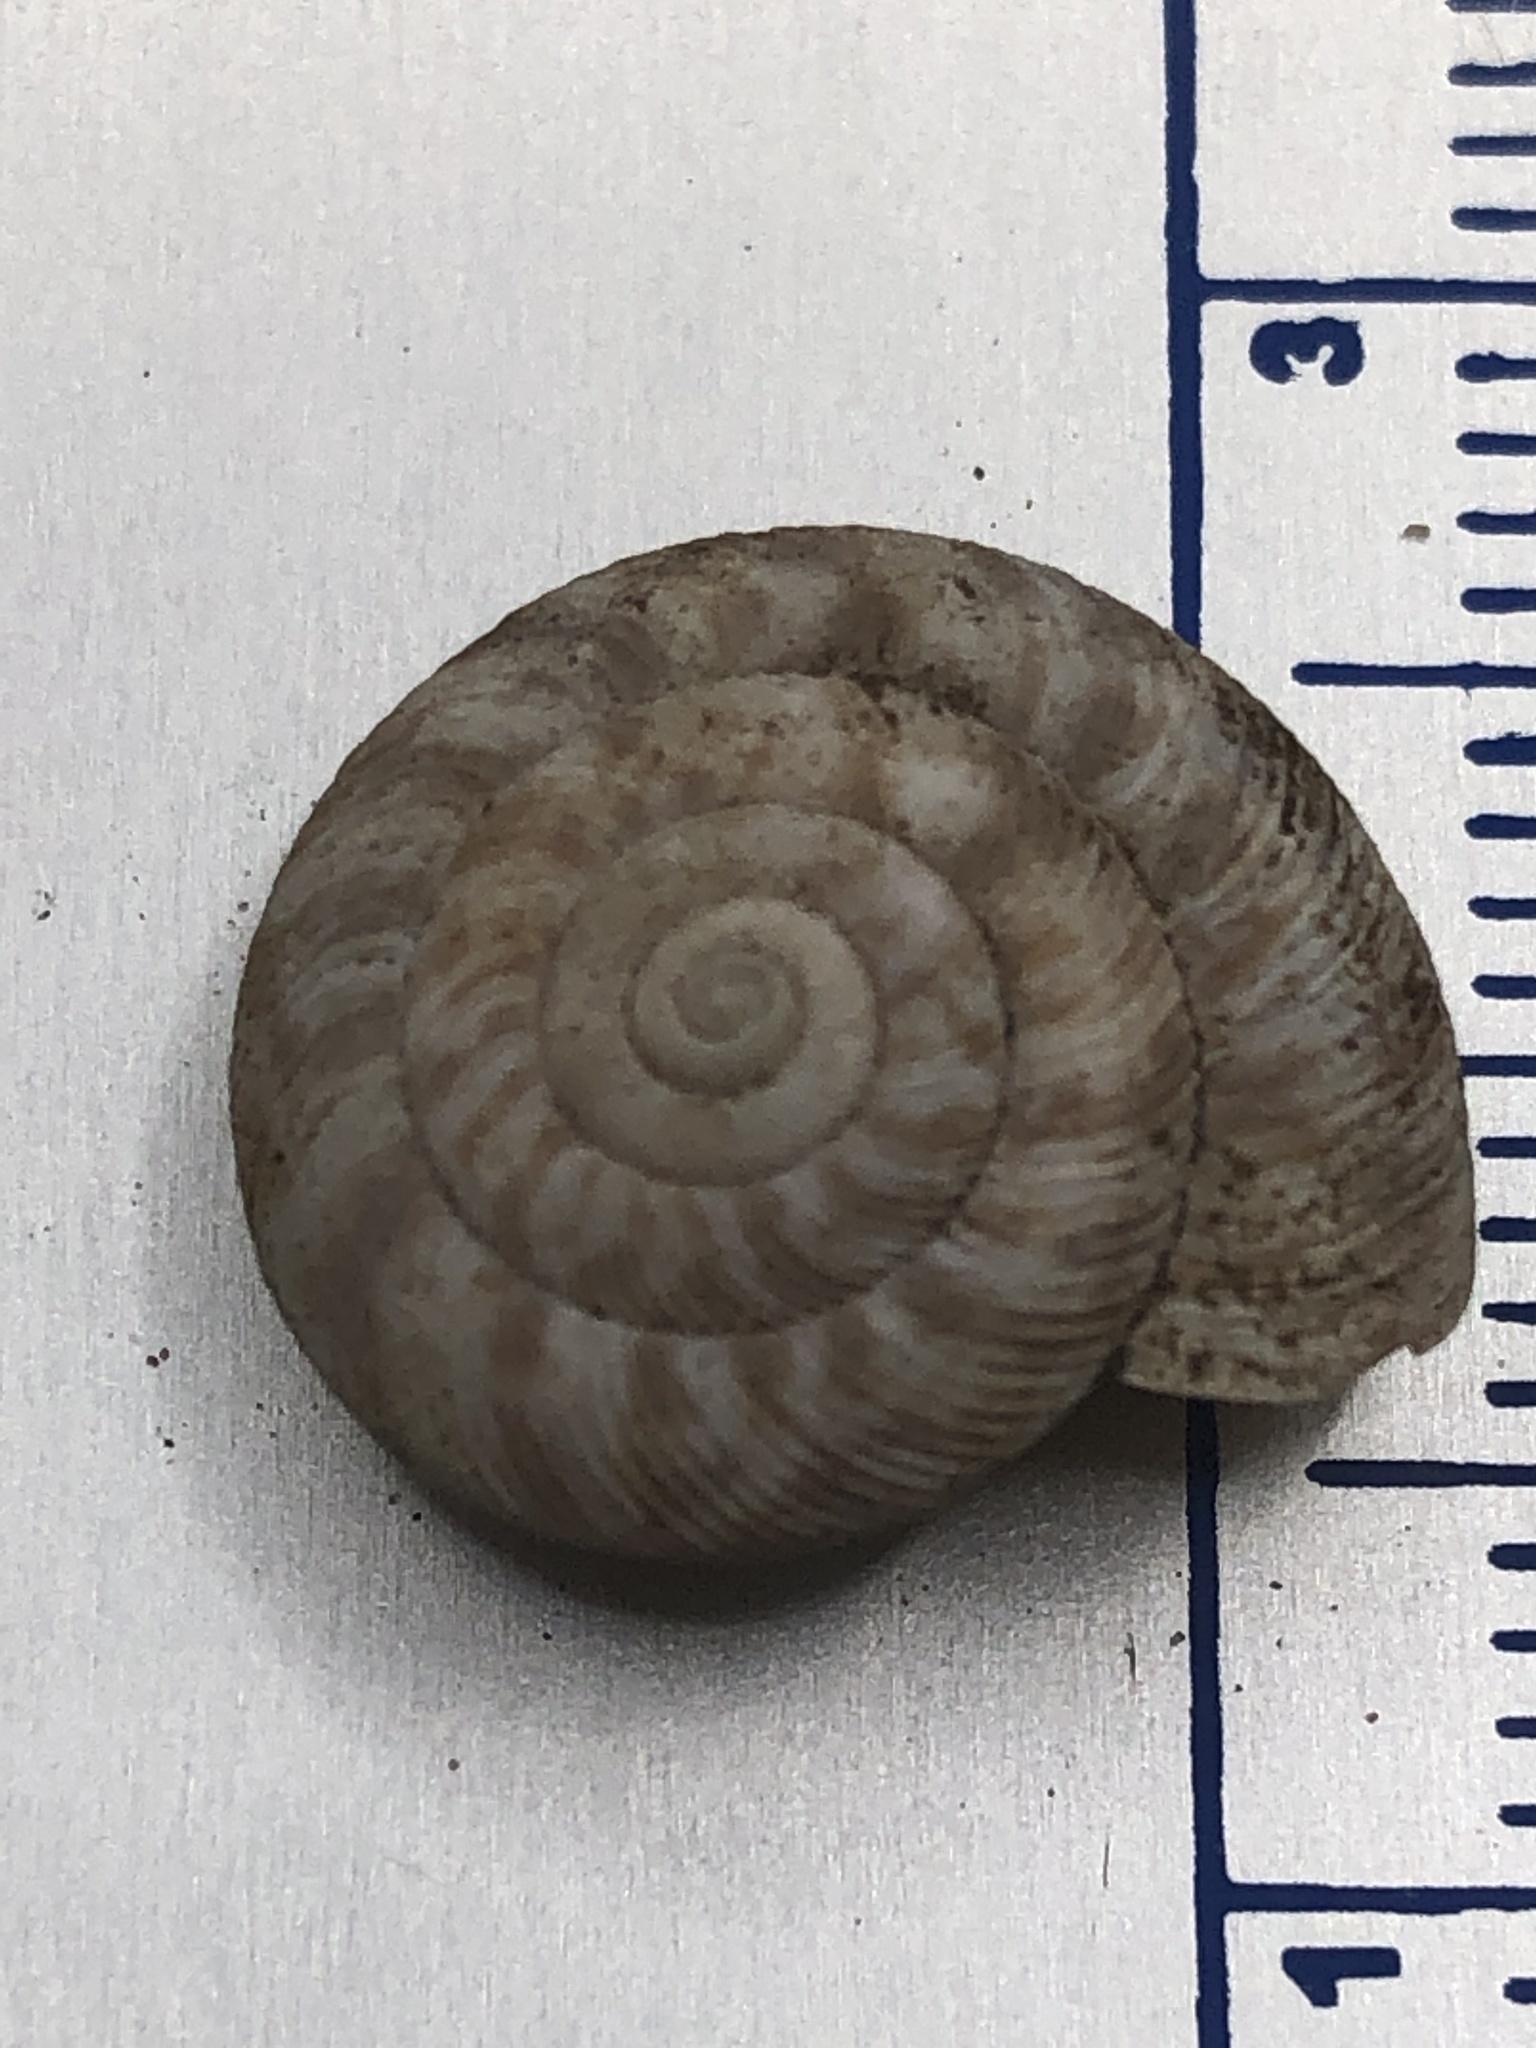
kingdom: Animalia
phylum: Mollusca
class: Gastropoda
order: Stylommatophora
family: Discidae
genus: Anguispira
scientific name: Anguispira alternata
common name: Flamed tigersnail
